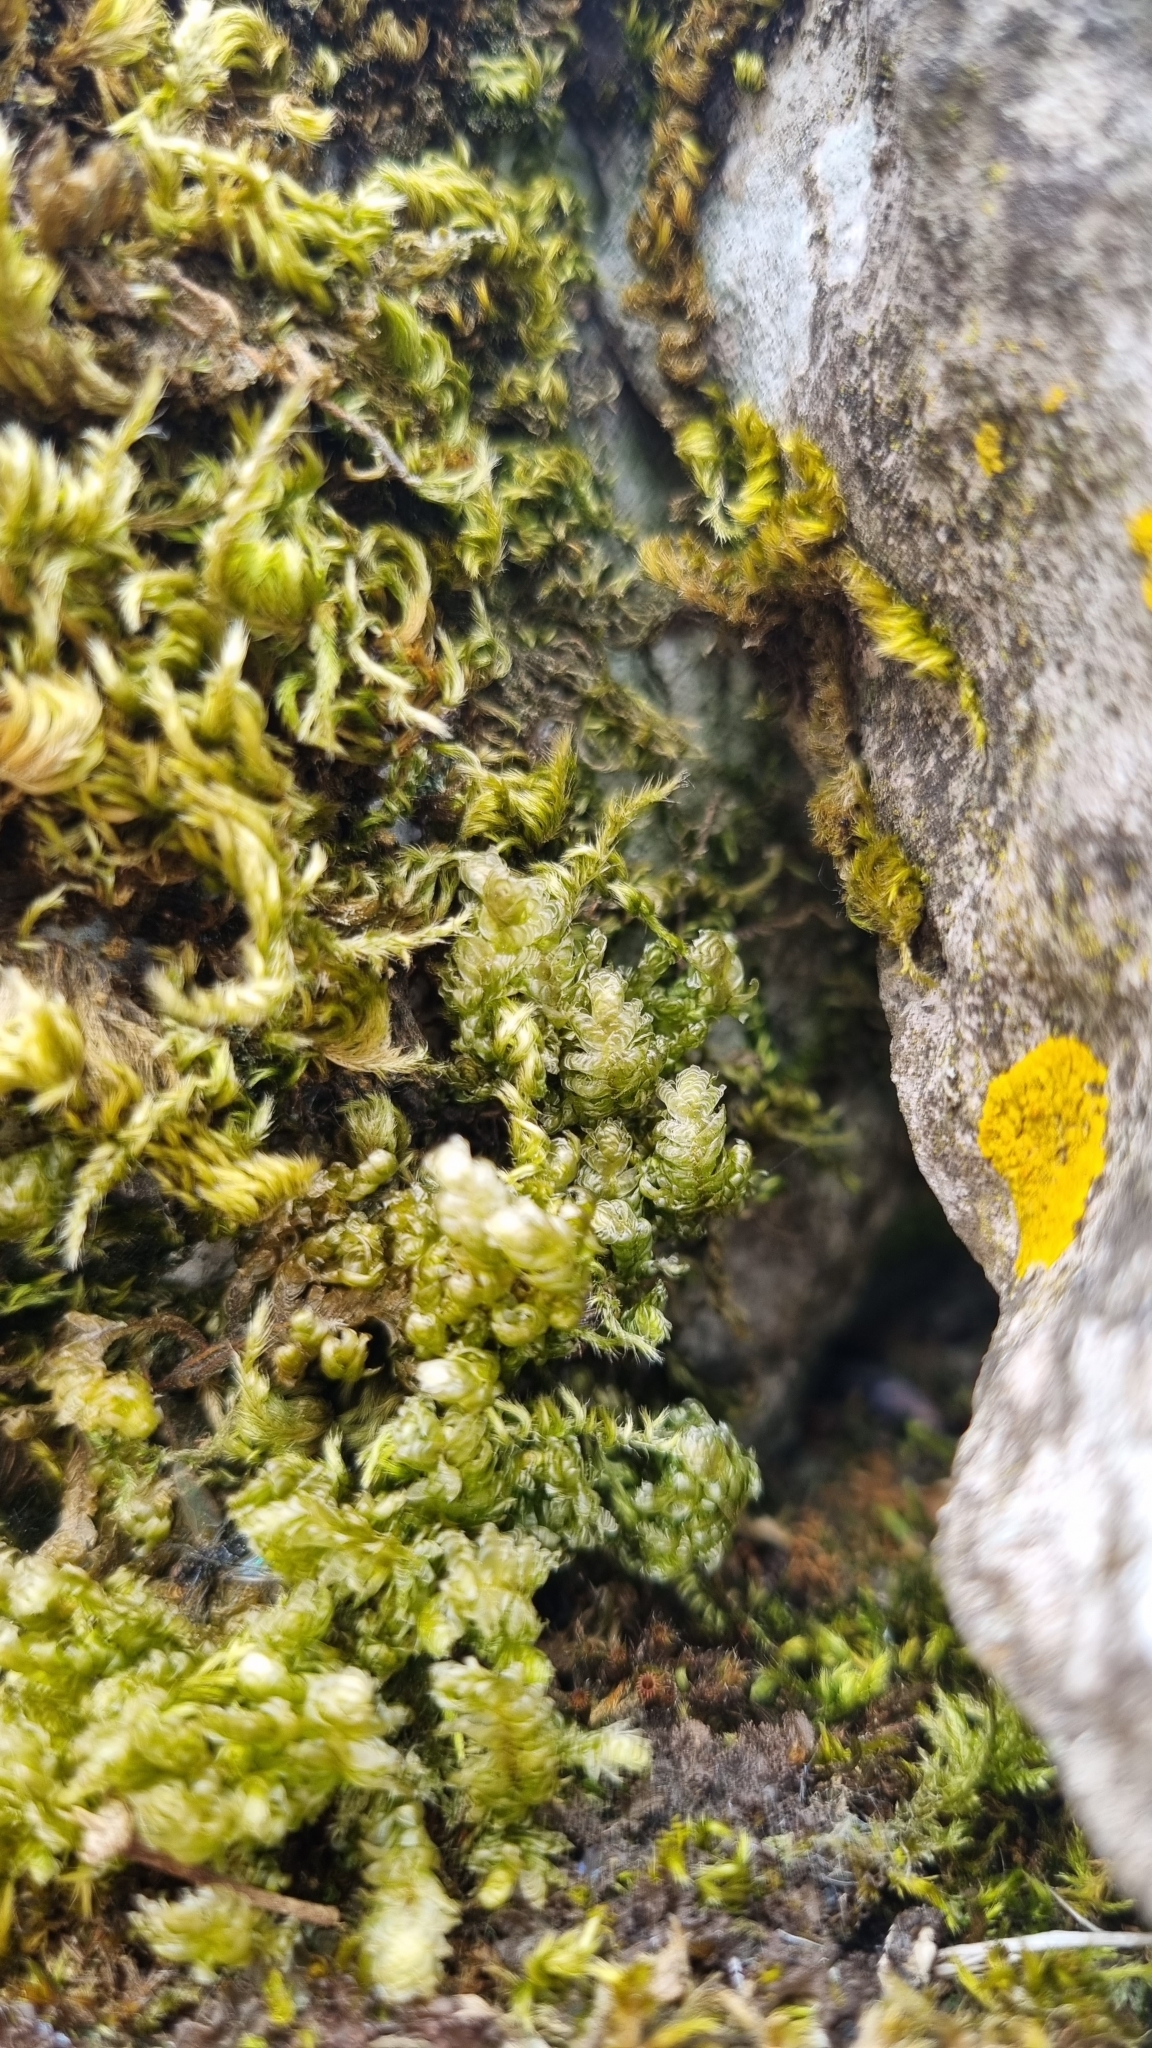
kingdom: Plantae
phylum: Bryophyta
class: Bryopsida
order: Hypnales
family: Neckeraceae
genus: Exsertotheca
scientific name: Exsertotheca crispa
